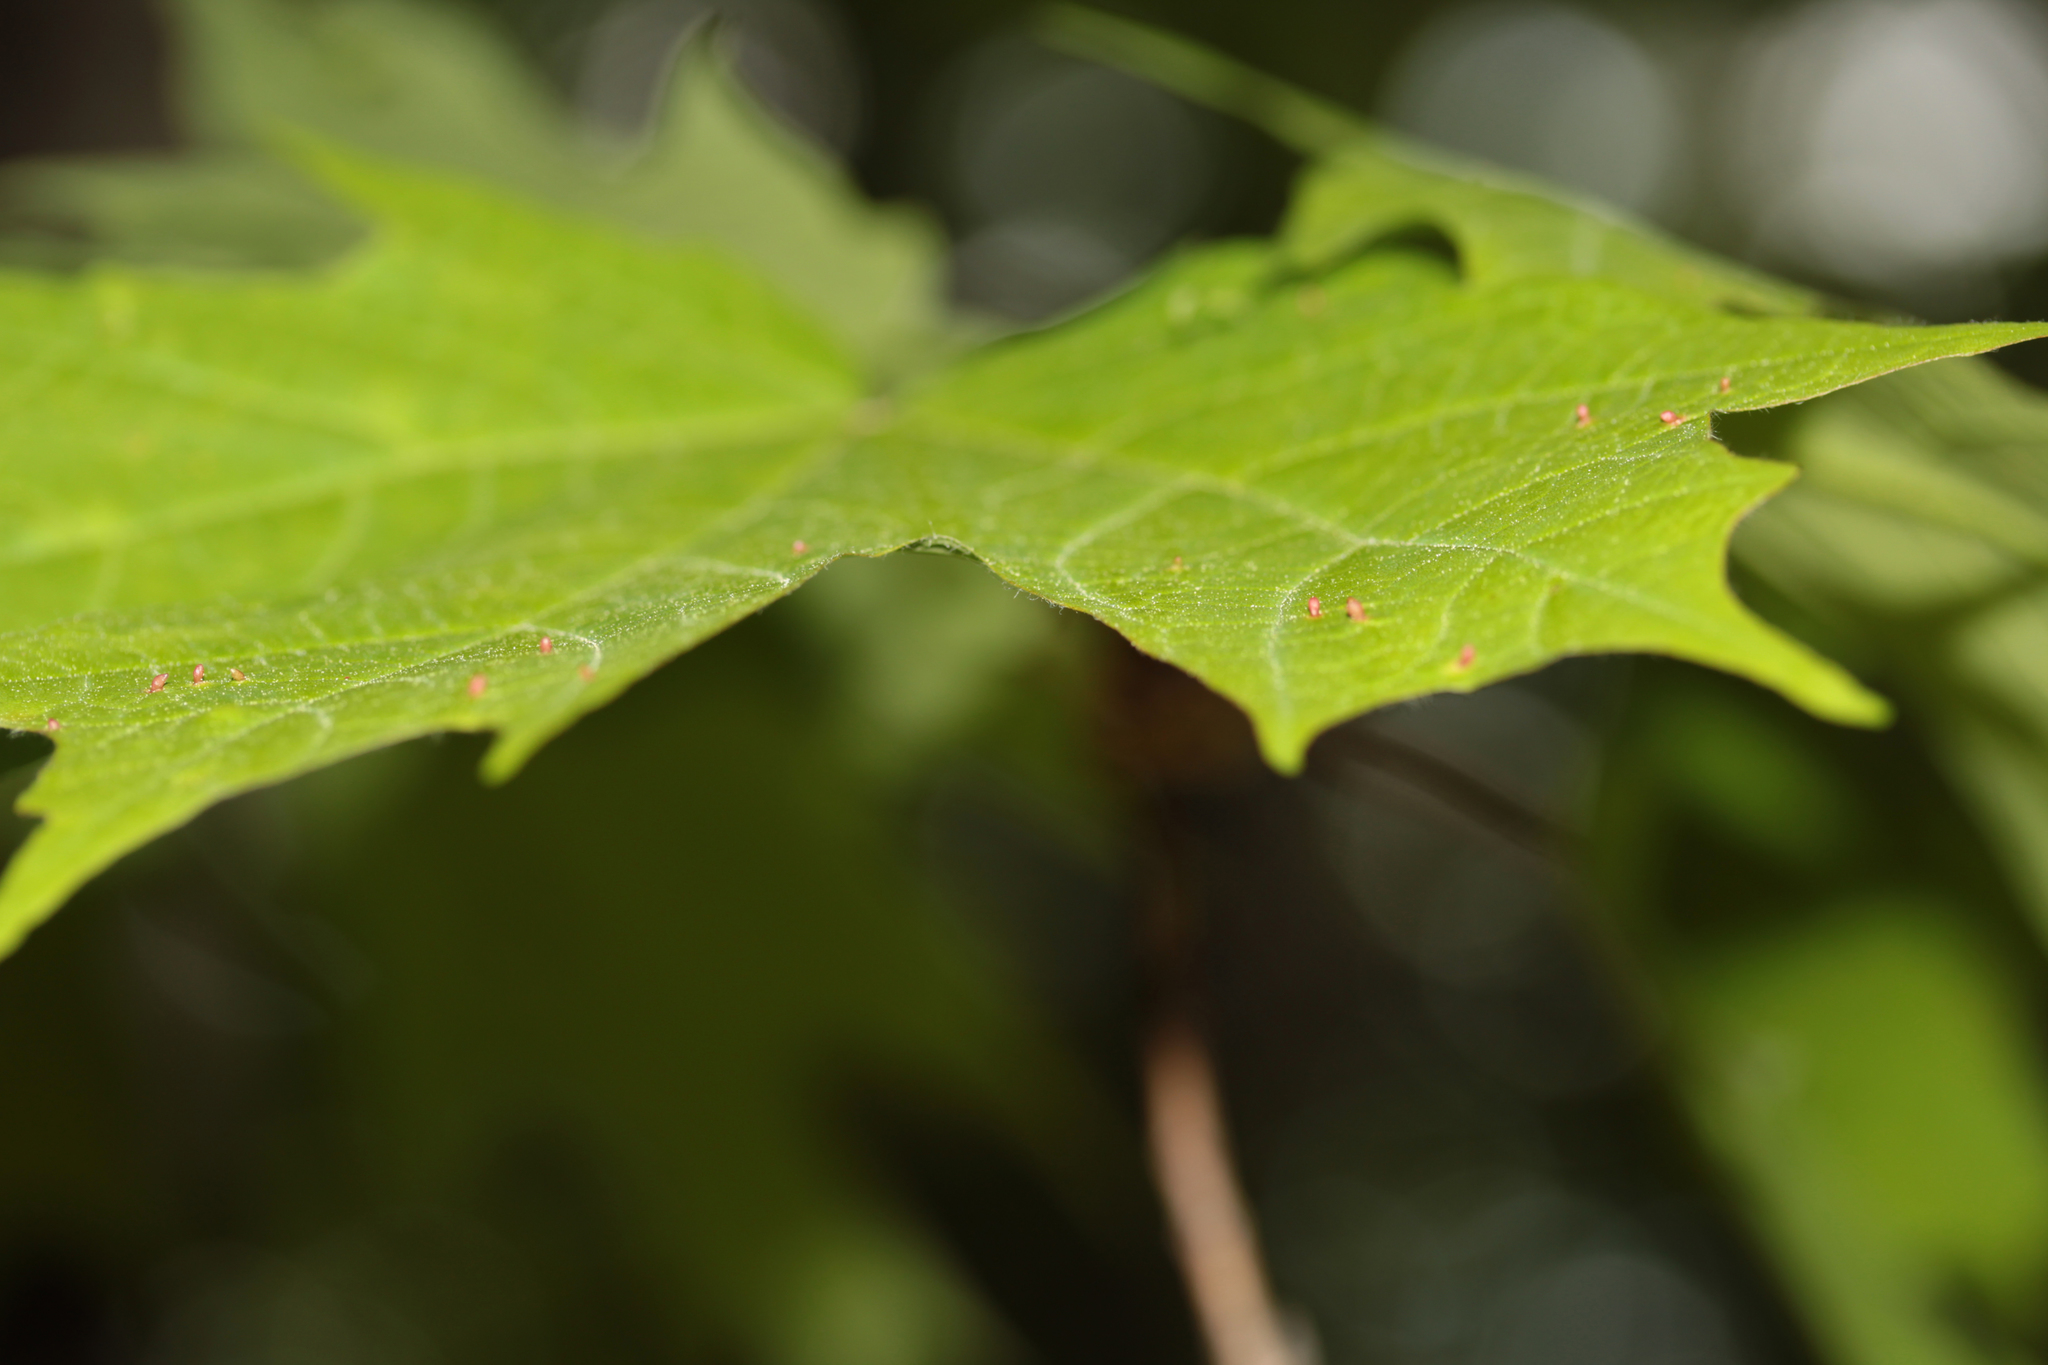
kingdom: Animalia
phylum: Arthropoda
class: Arachnida
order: Trombidiformes
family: Eriophyidae
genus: Vasates
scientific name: Vasates aceriscrumena
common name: Maple spindle gall mite
